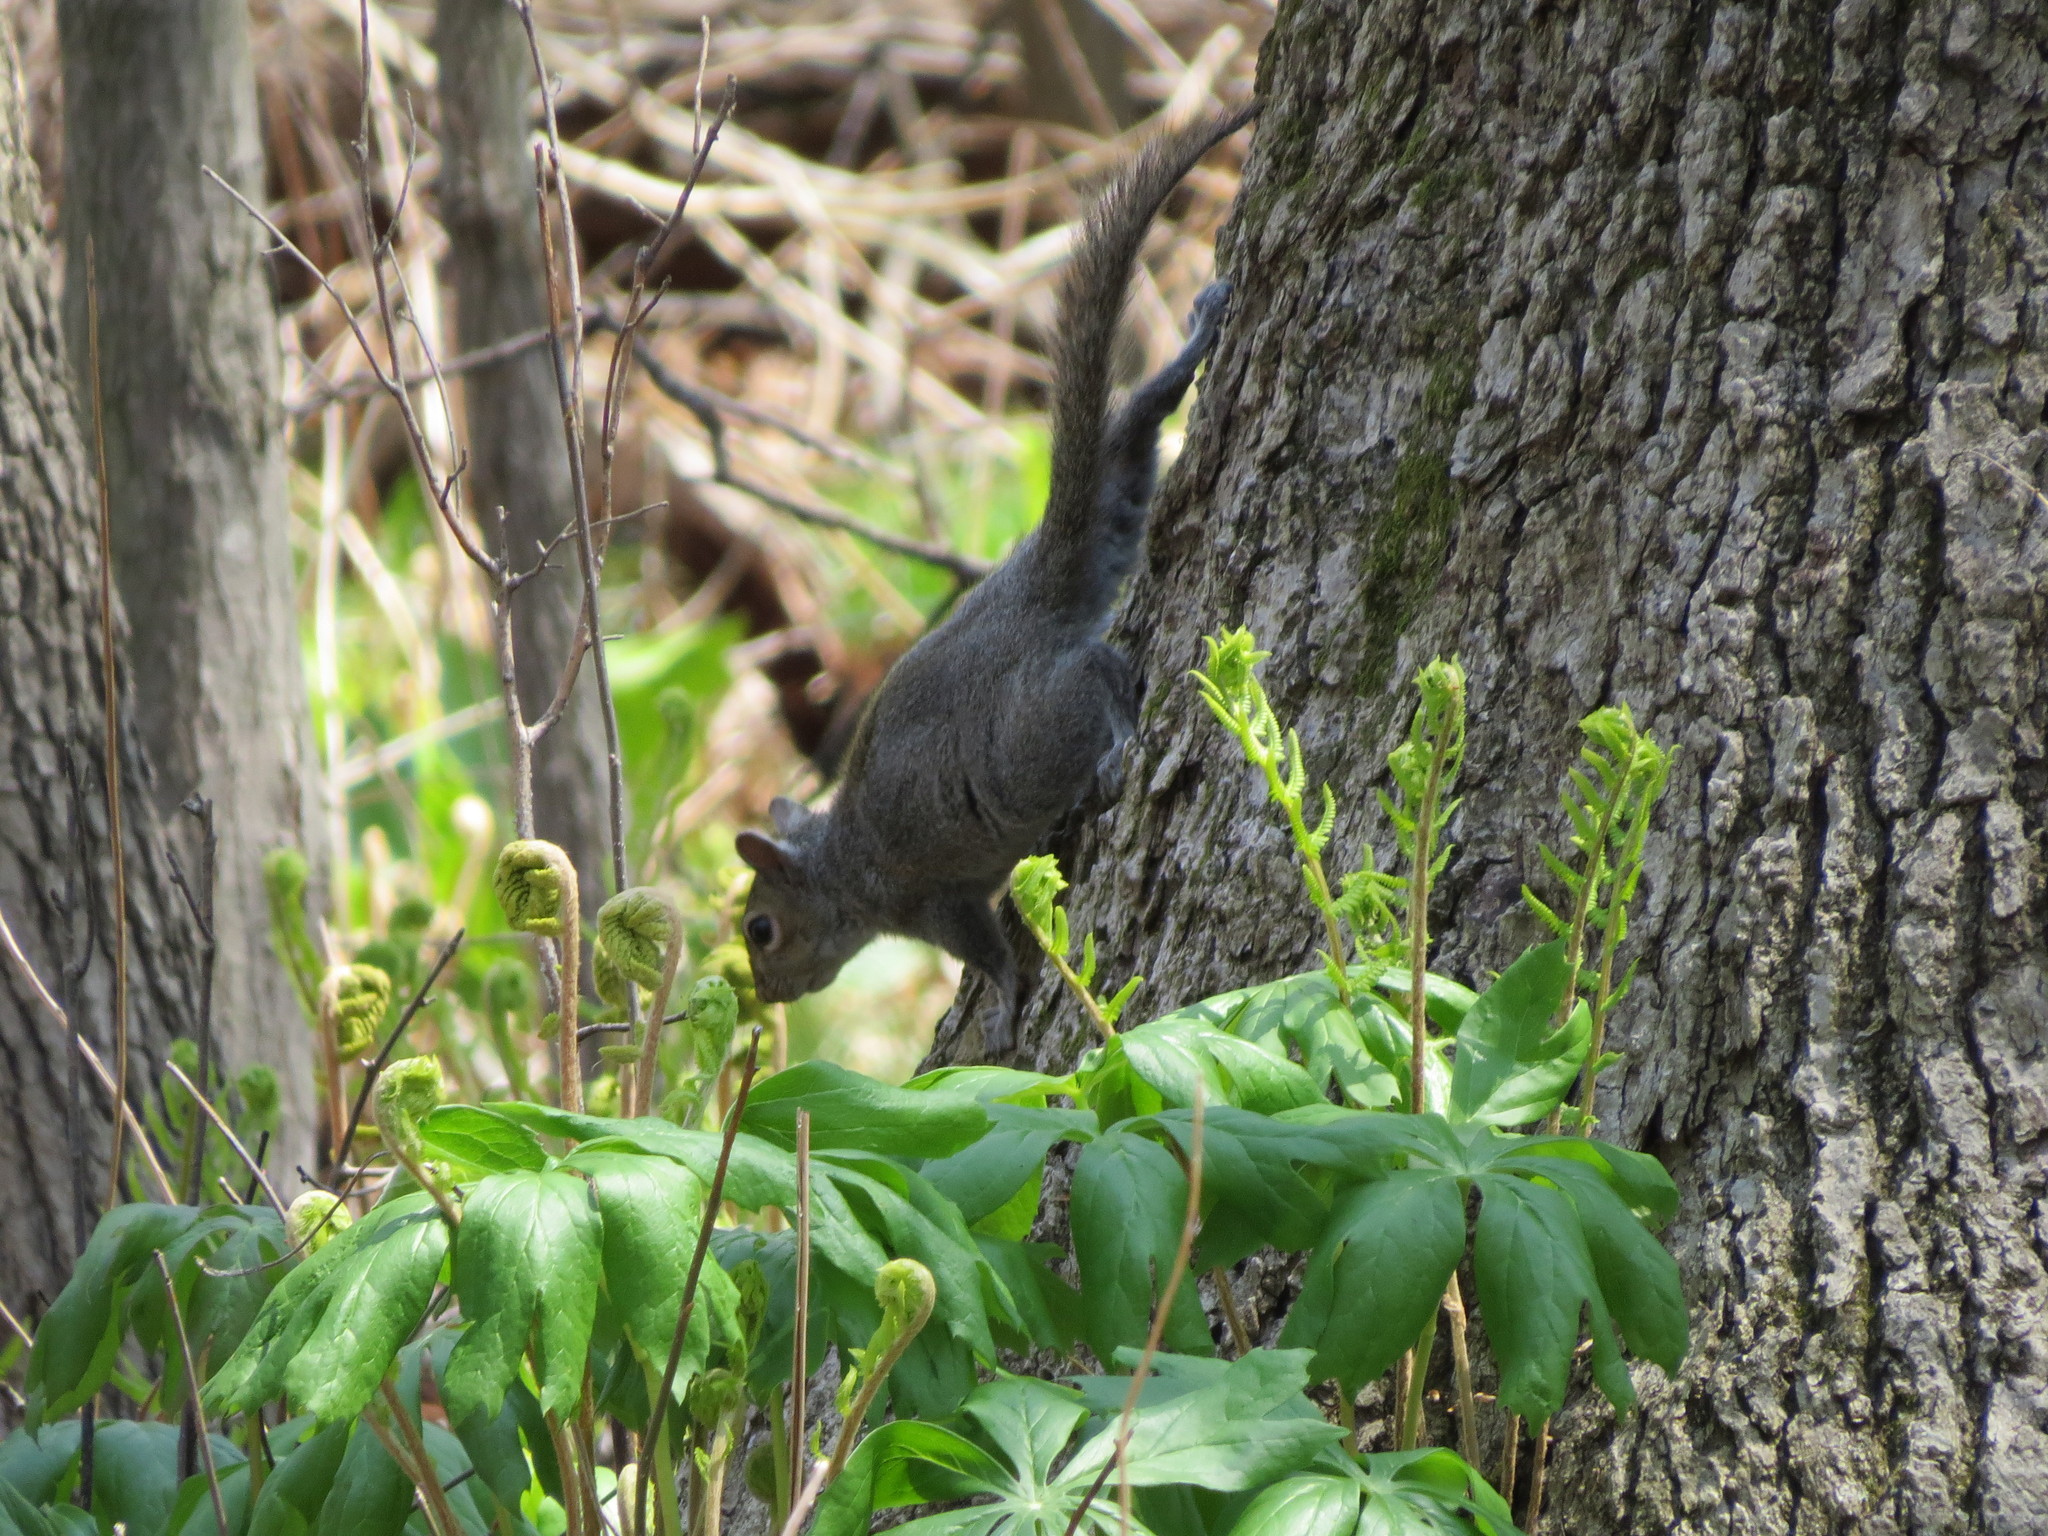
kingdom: Animalia
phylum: Chordata
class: Mammalia
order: Rodentia
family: Sciuridae
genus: Sciurus
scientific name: Sciurus carolinensis
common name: Eastern gray squirrel
